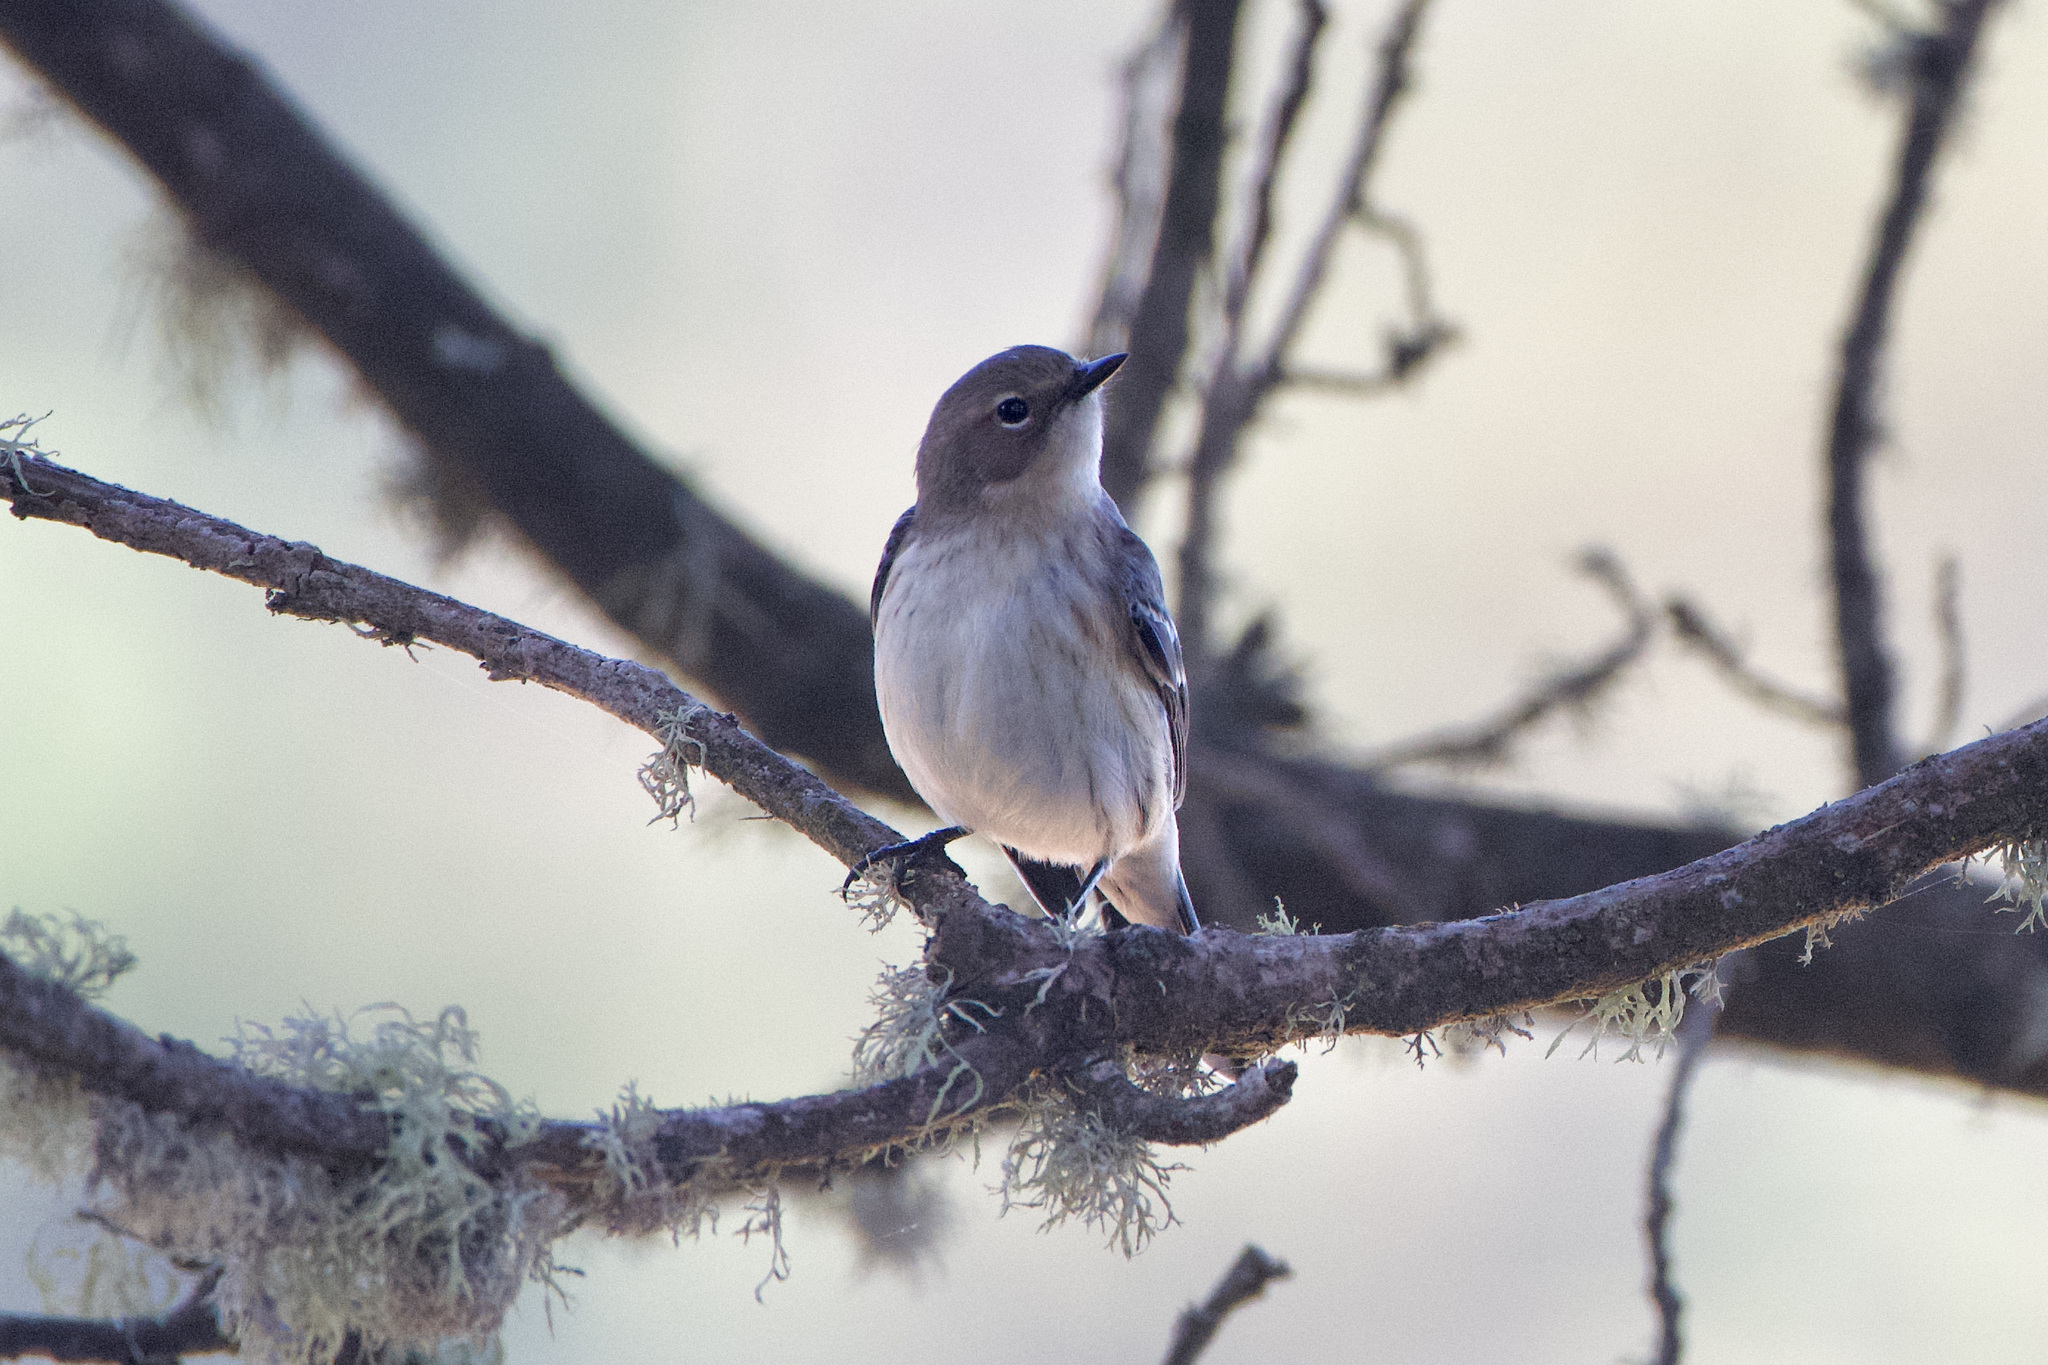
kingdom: Animalia
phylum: Chordata
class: Aves
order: Passeriformes
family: Parulidae
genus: Setophaga
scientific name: Setophaga coronata
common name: Myrtle warbler
